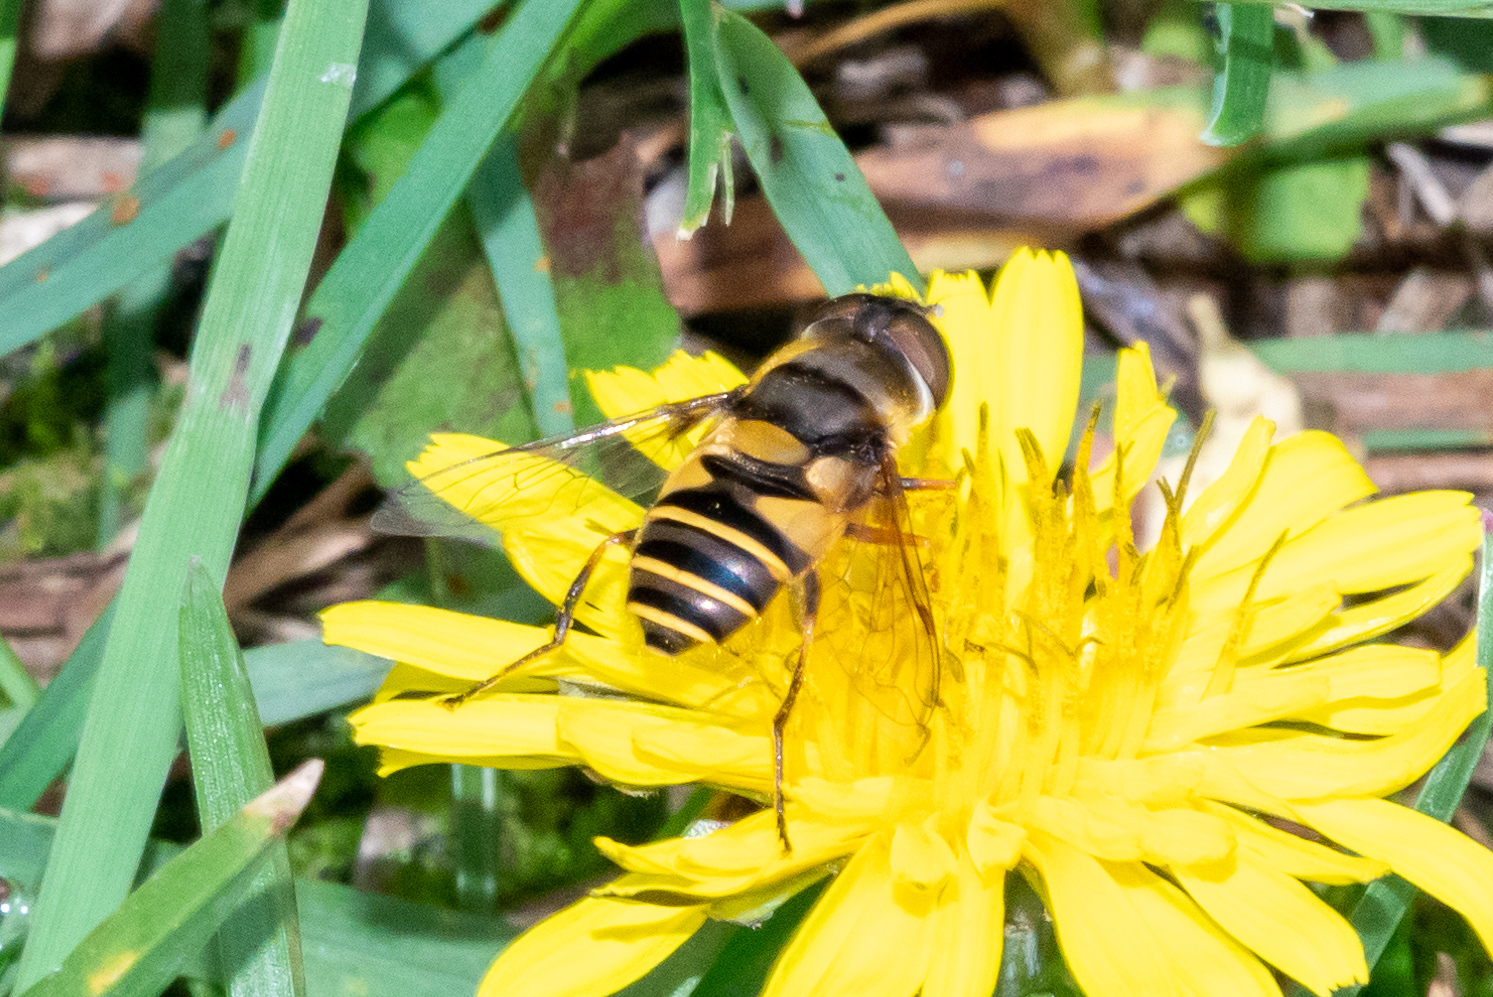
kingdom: Animalia
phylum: Arthropoda
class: Insecta
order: Diptera
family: Syrphidae
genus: Eristalis
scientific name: Eristalis transversa
